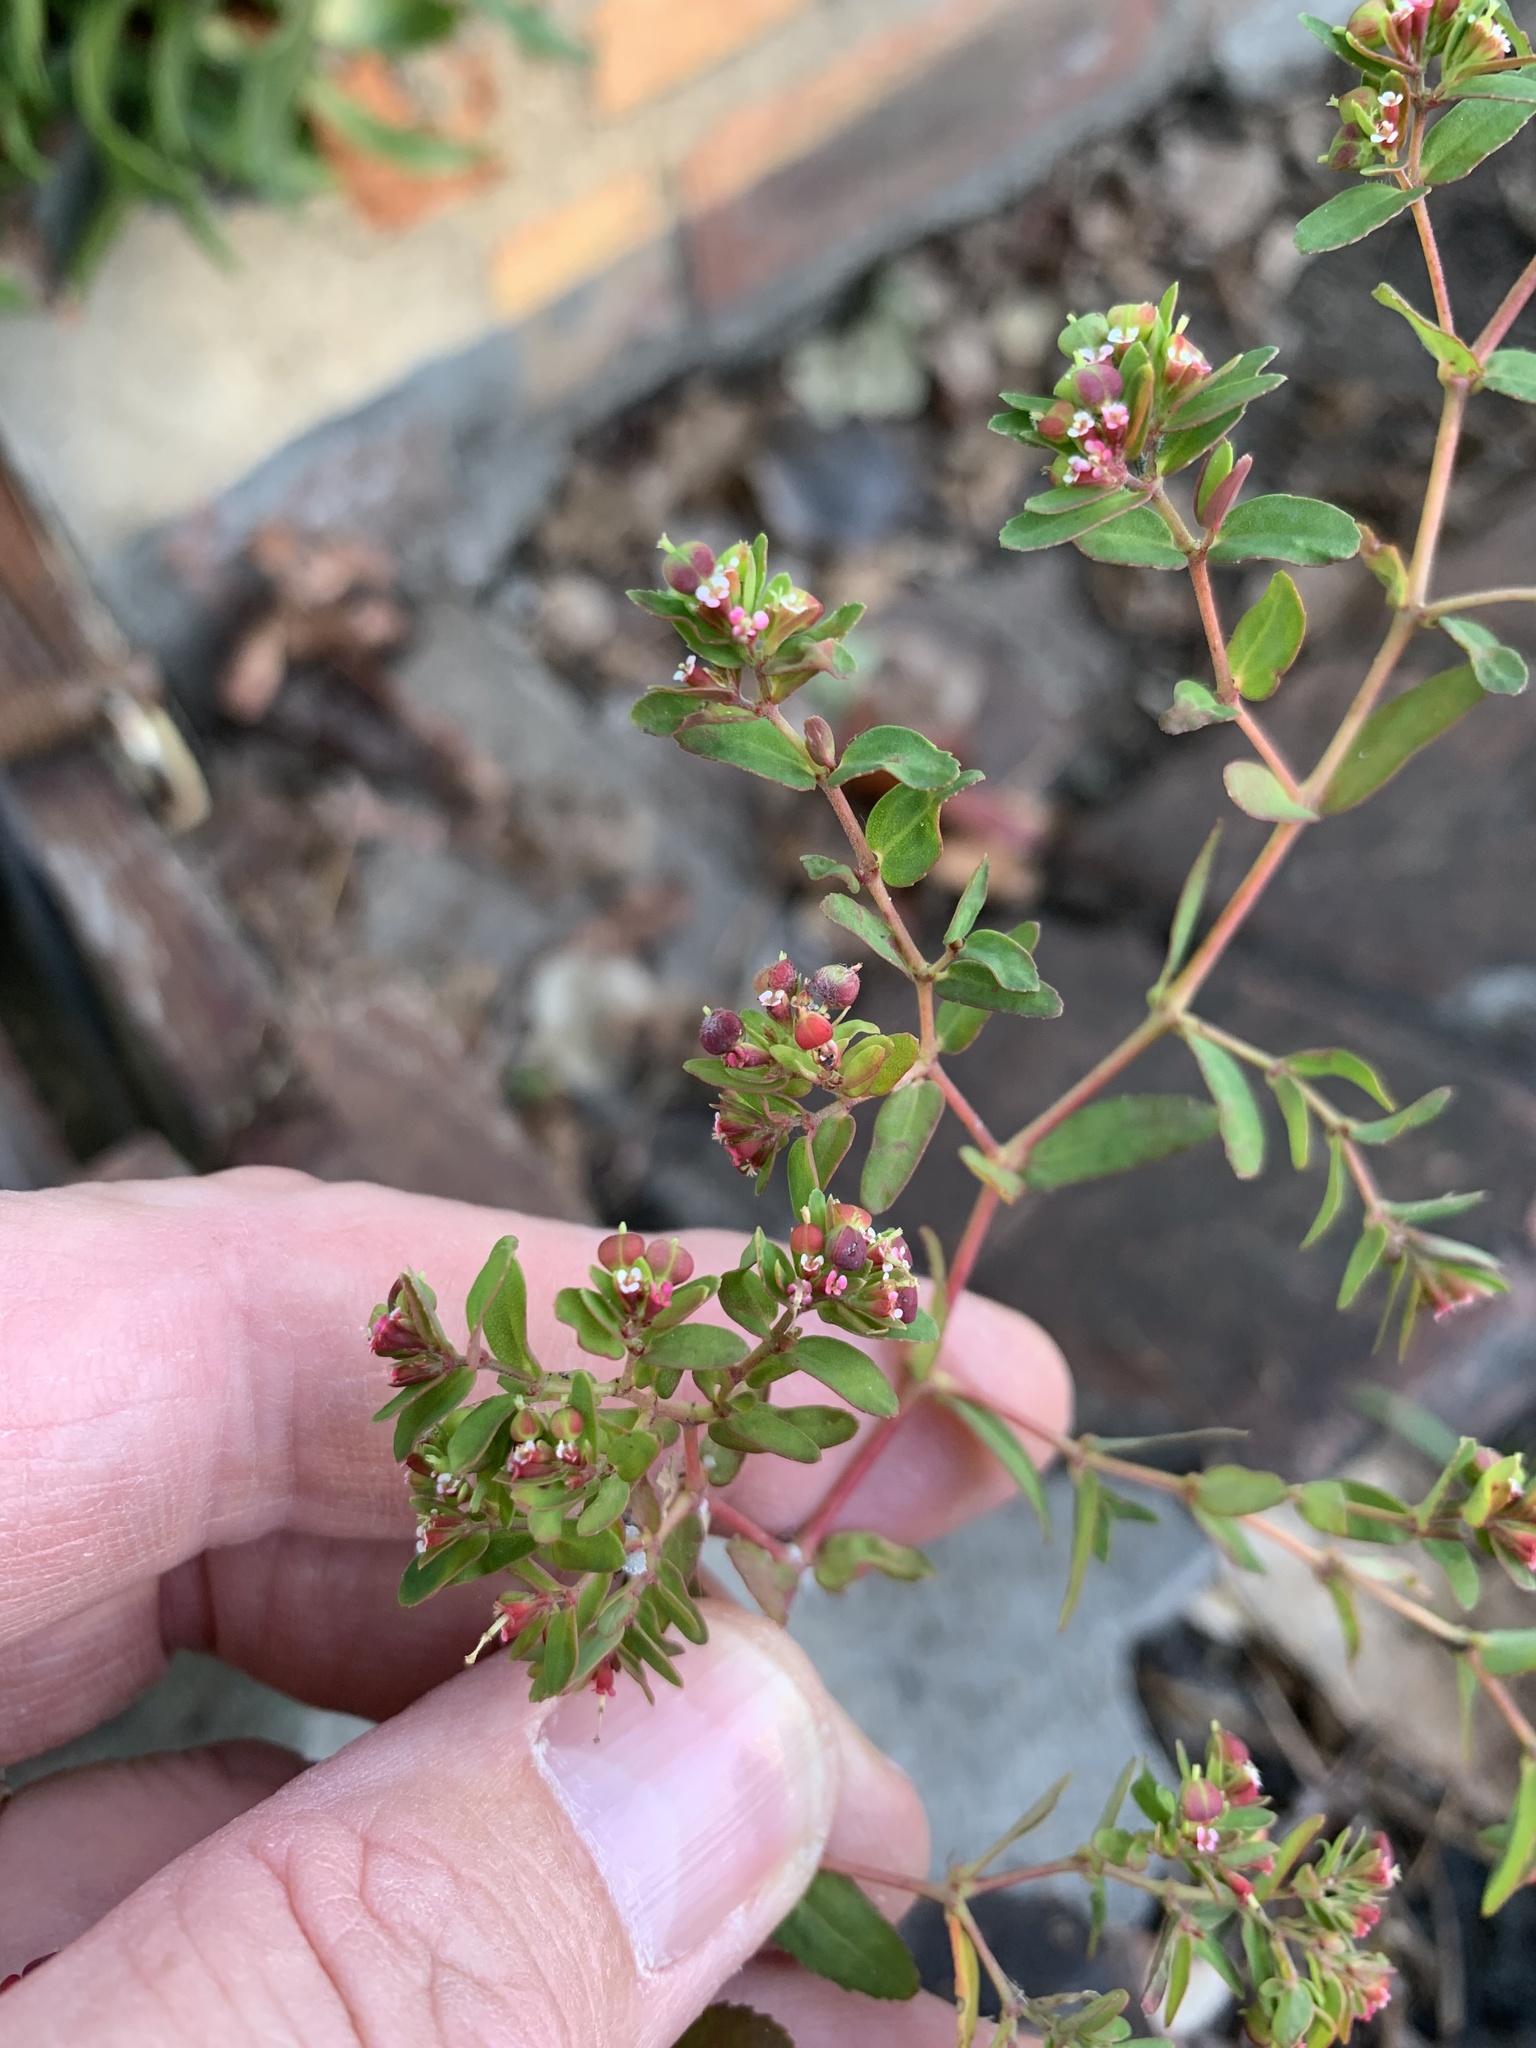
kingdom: Plantae
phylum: Tracheophyta
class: Magnoliopsida
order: Malpighiales
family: Euphorbiaceae
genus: Euphorbia
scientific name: Euphorbia nutans
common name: Eyebane
